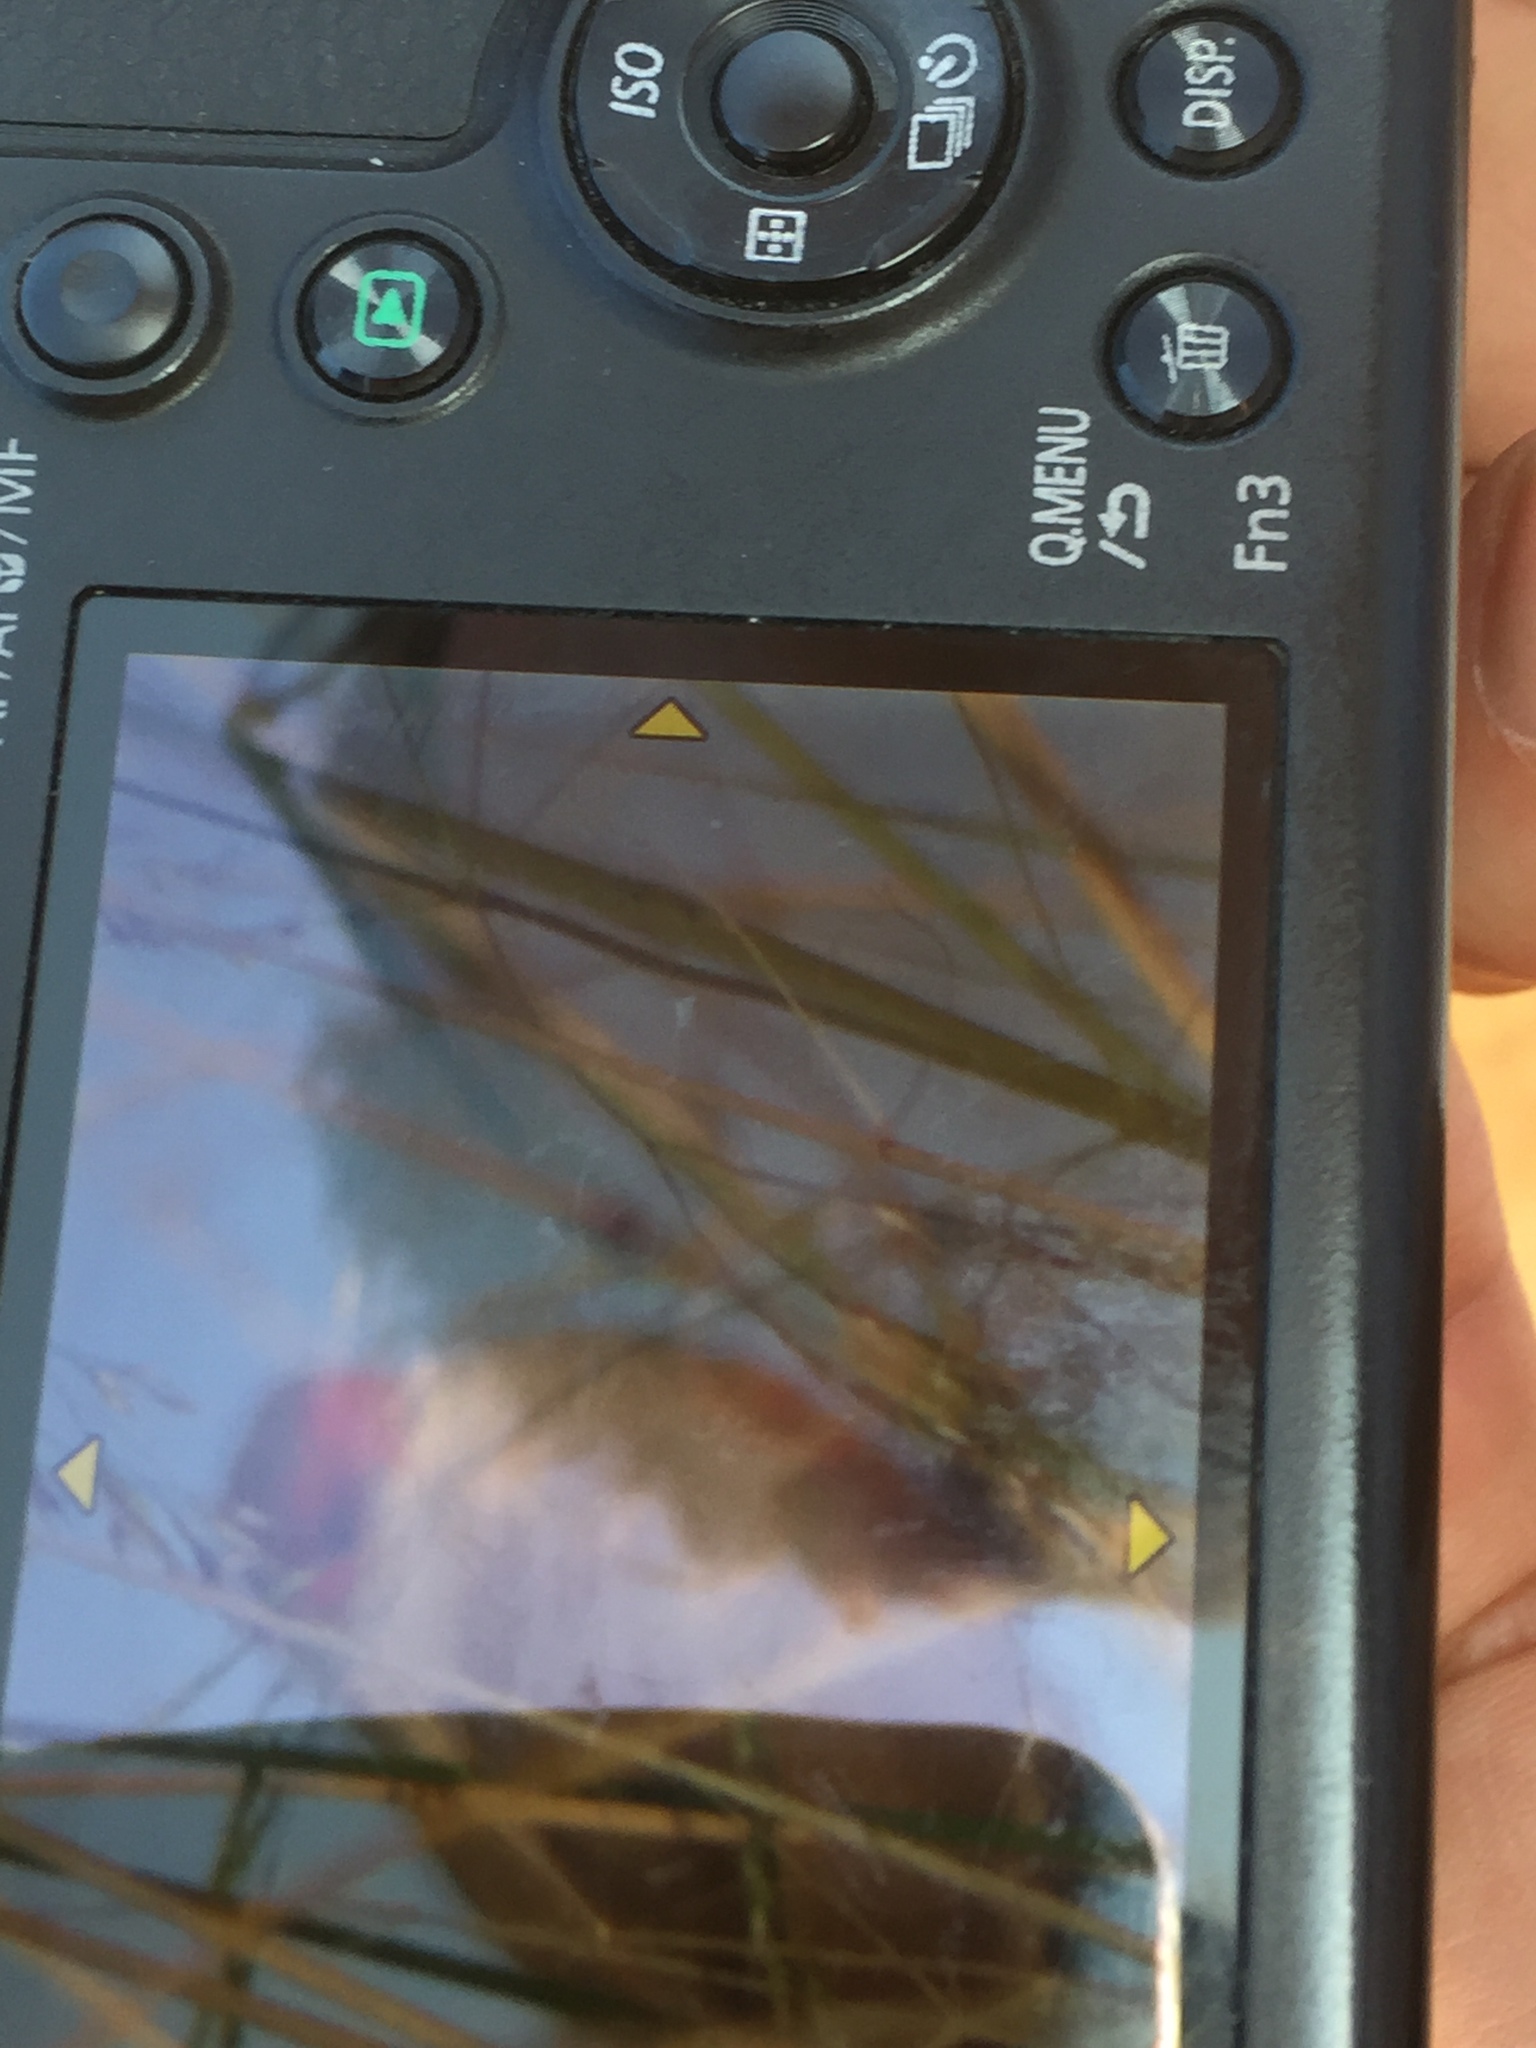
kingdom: Animalia
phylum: Chordata
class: Aves
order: Passeriformes
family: Estrildidae
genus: Estrilda
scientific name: Estrilda astrild
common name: Common waxbill
